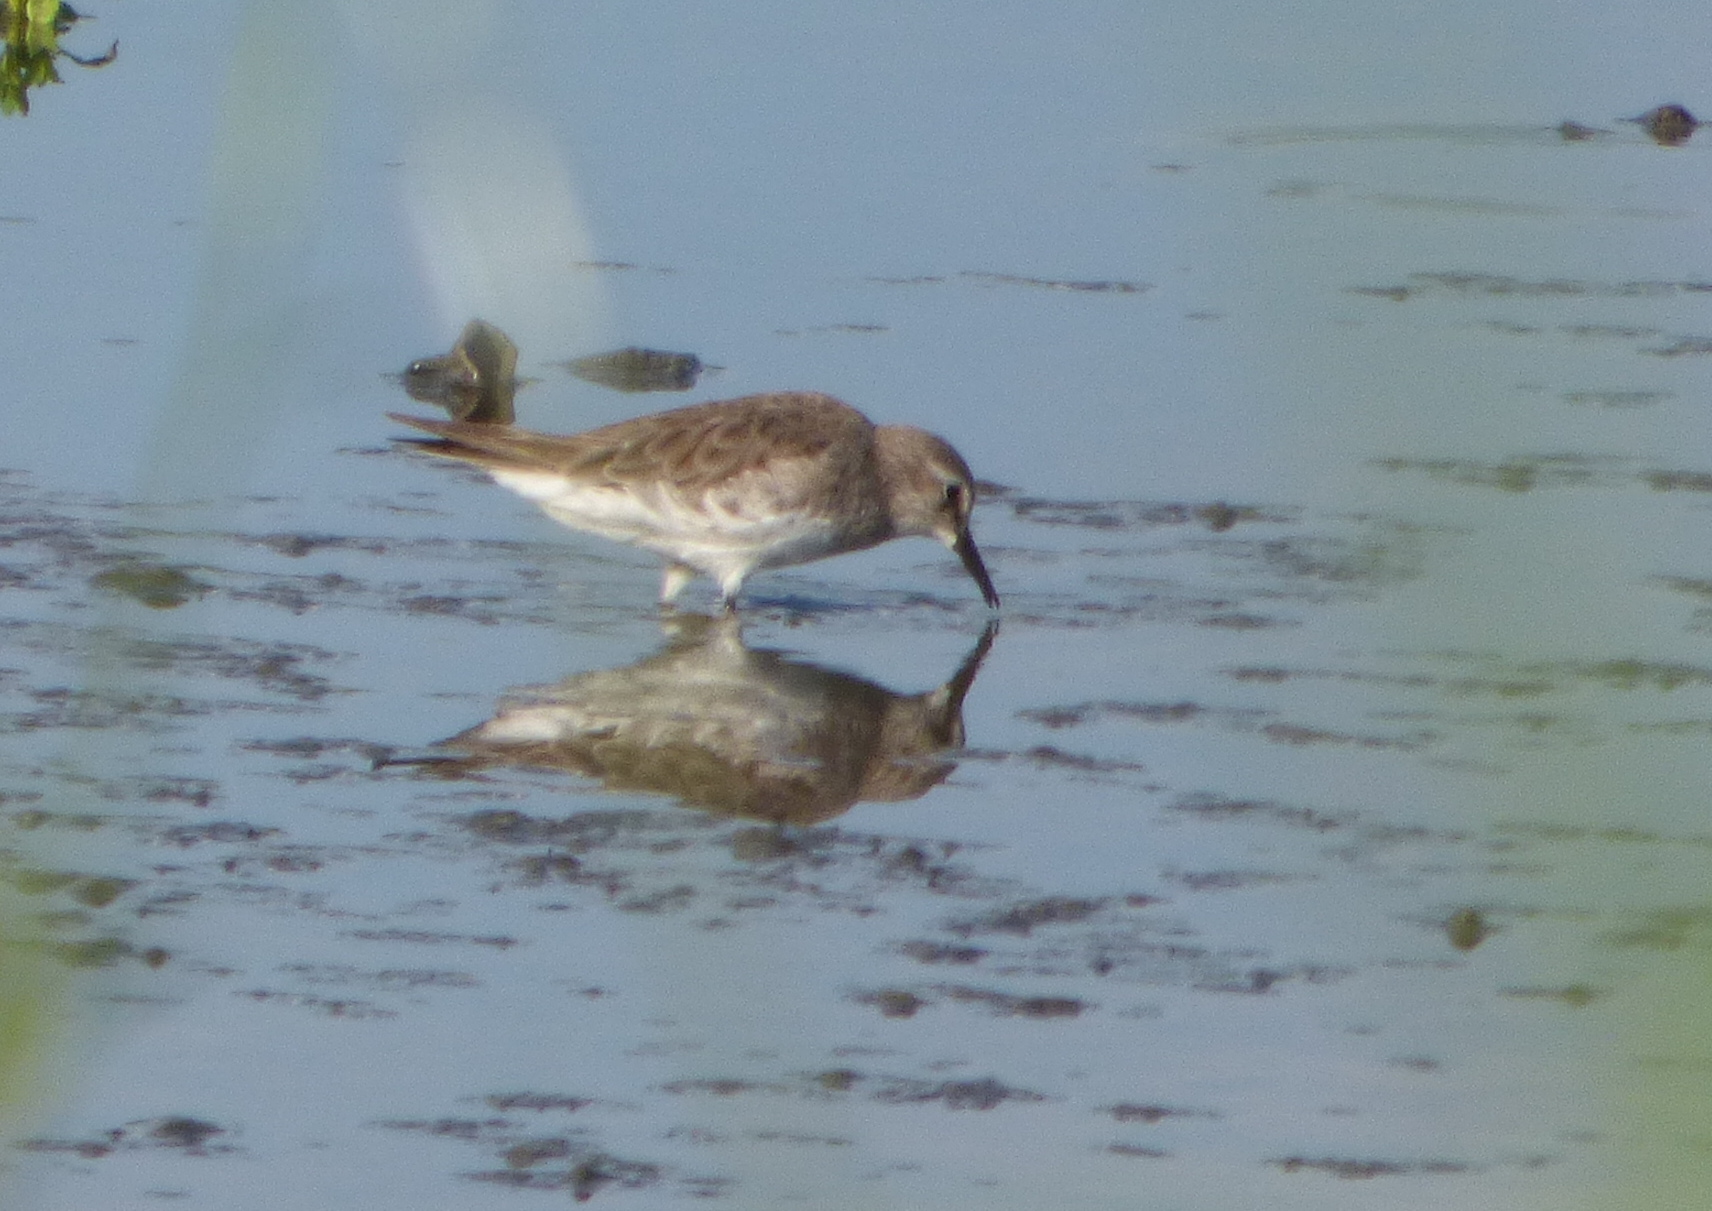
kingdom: Animalia
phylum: Chordata
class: Aves
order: Charadriiformes
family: Scolopacidae
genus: Calidris
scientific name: Calidris fuscicollis
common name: White-rumped sandpiper
